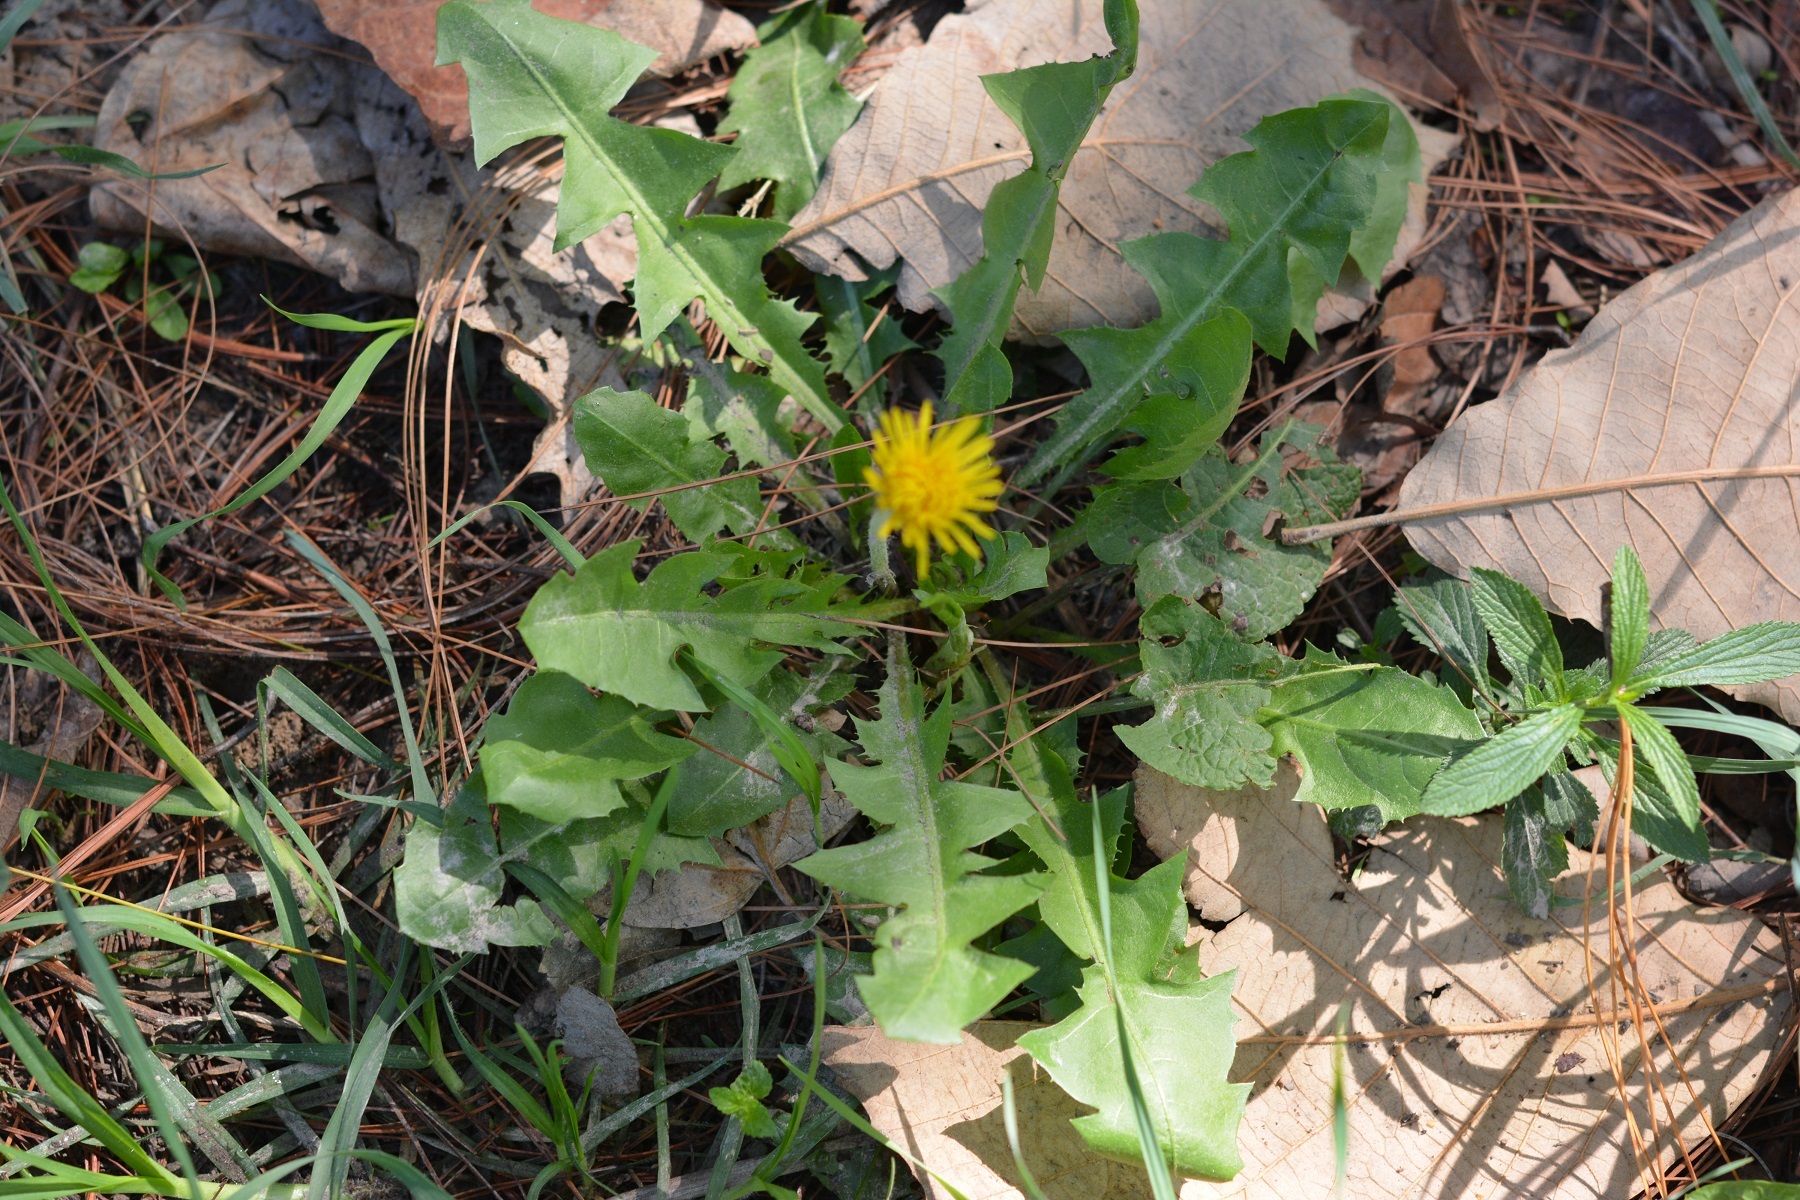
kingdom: Plantae
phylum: Tracheophyta
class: Magnoliopsida
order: Asterales
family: Asteraceae
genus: Taraxacum
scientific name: Taraxacum officinale
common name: Common dandelion
